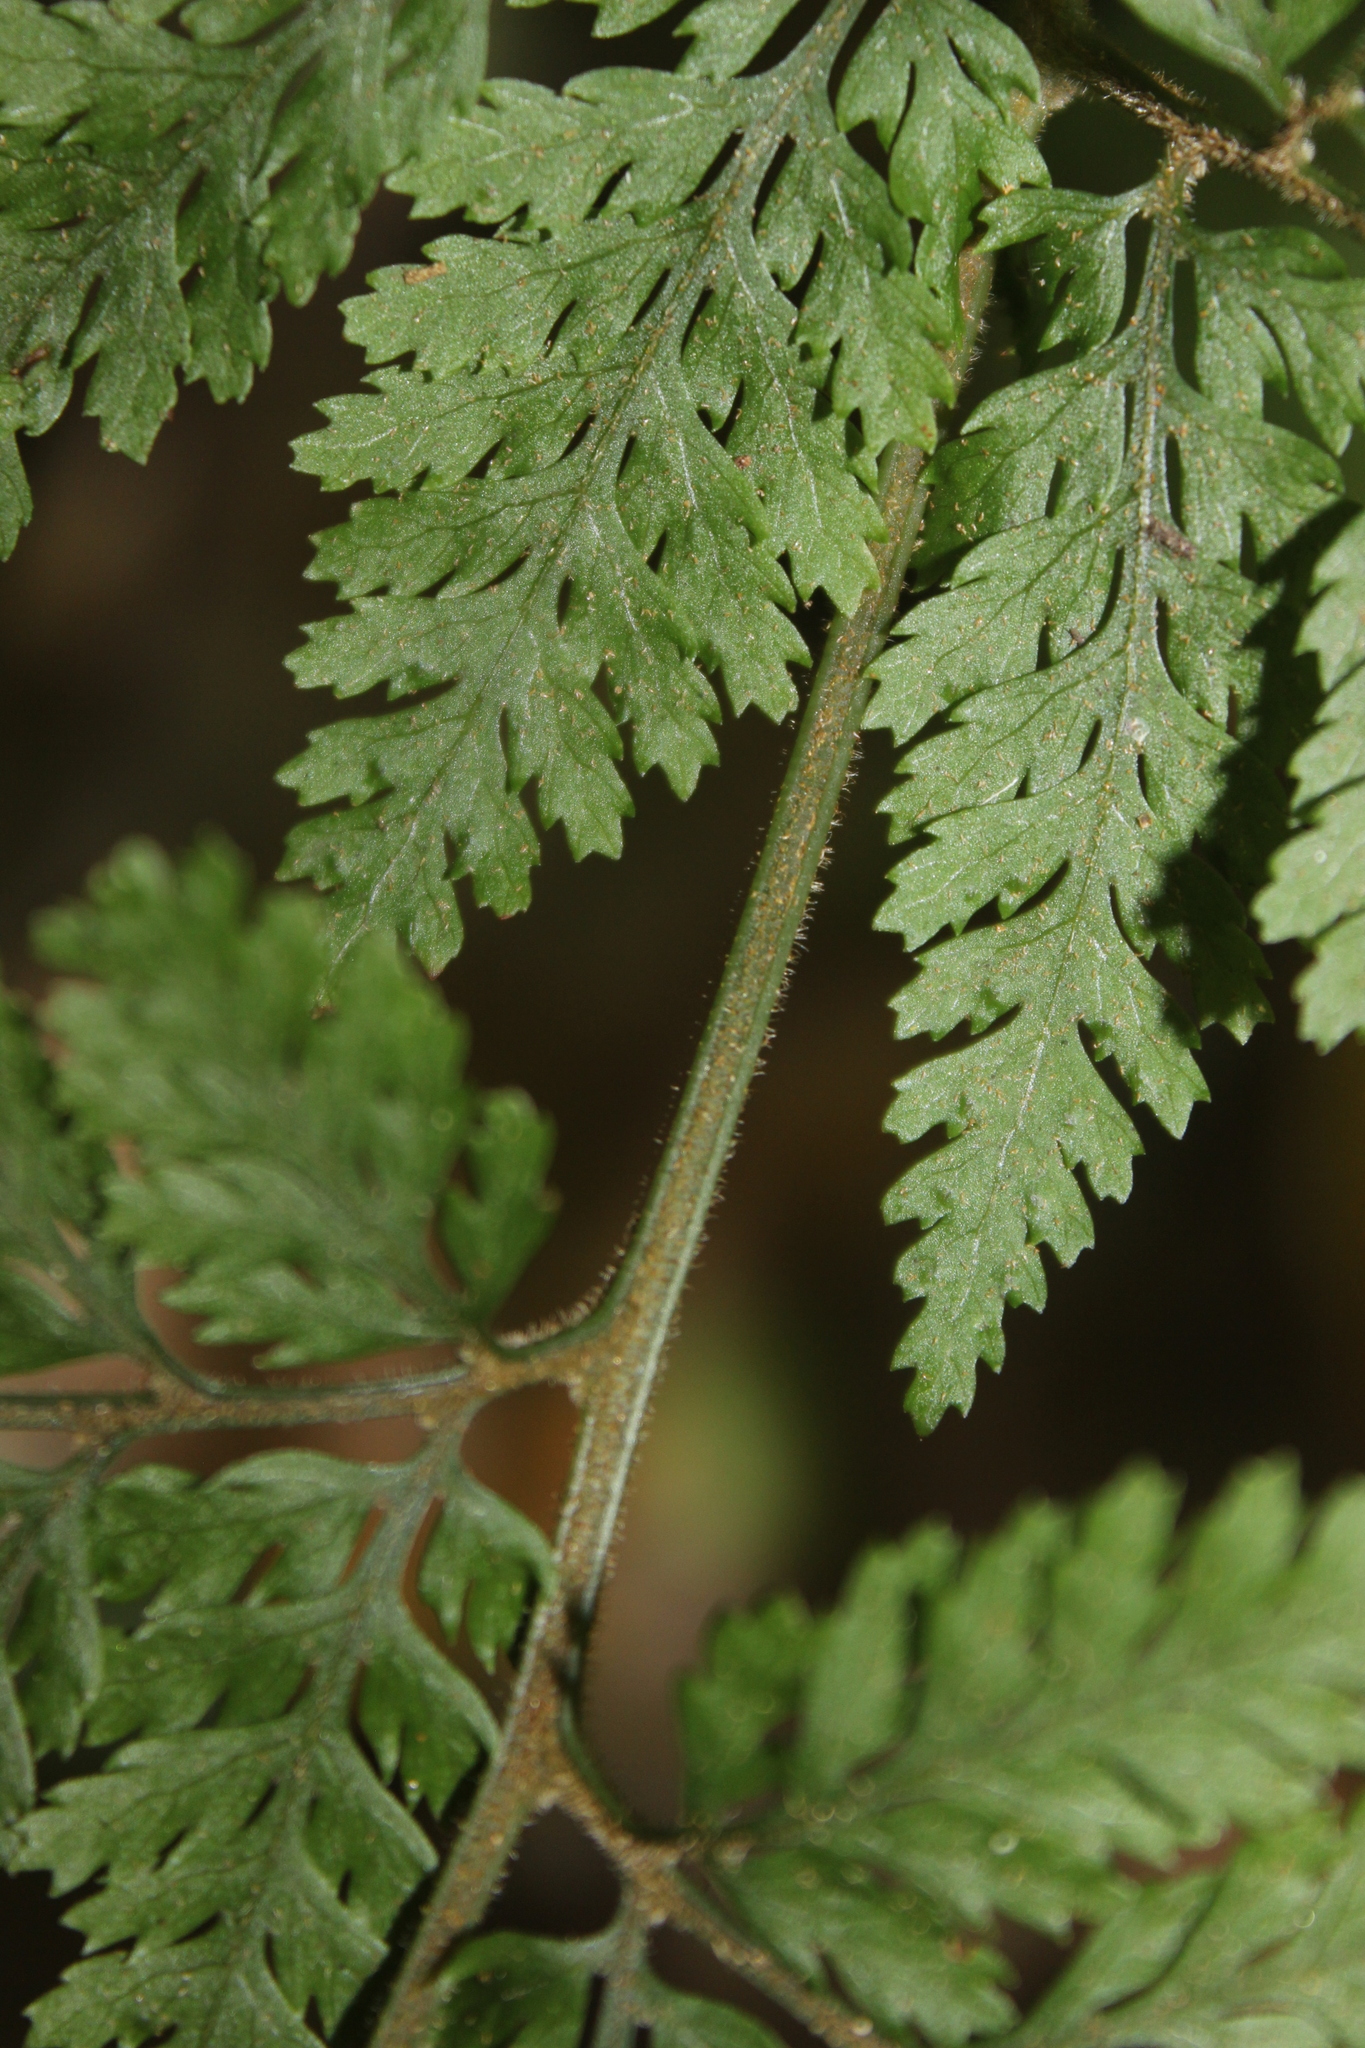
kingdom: Plantae
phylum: Tracheophyta
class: Polypodiopsida
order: Polypodiales
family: Dryopteridaceae
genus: Parapolystichum
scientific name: Parapolystichum microsorum
